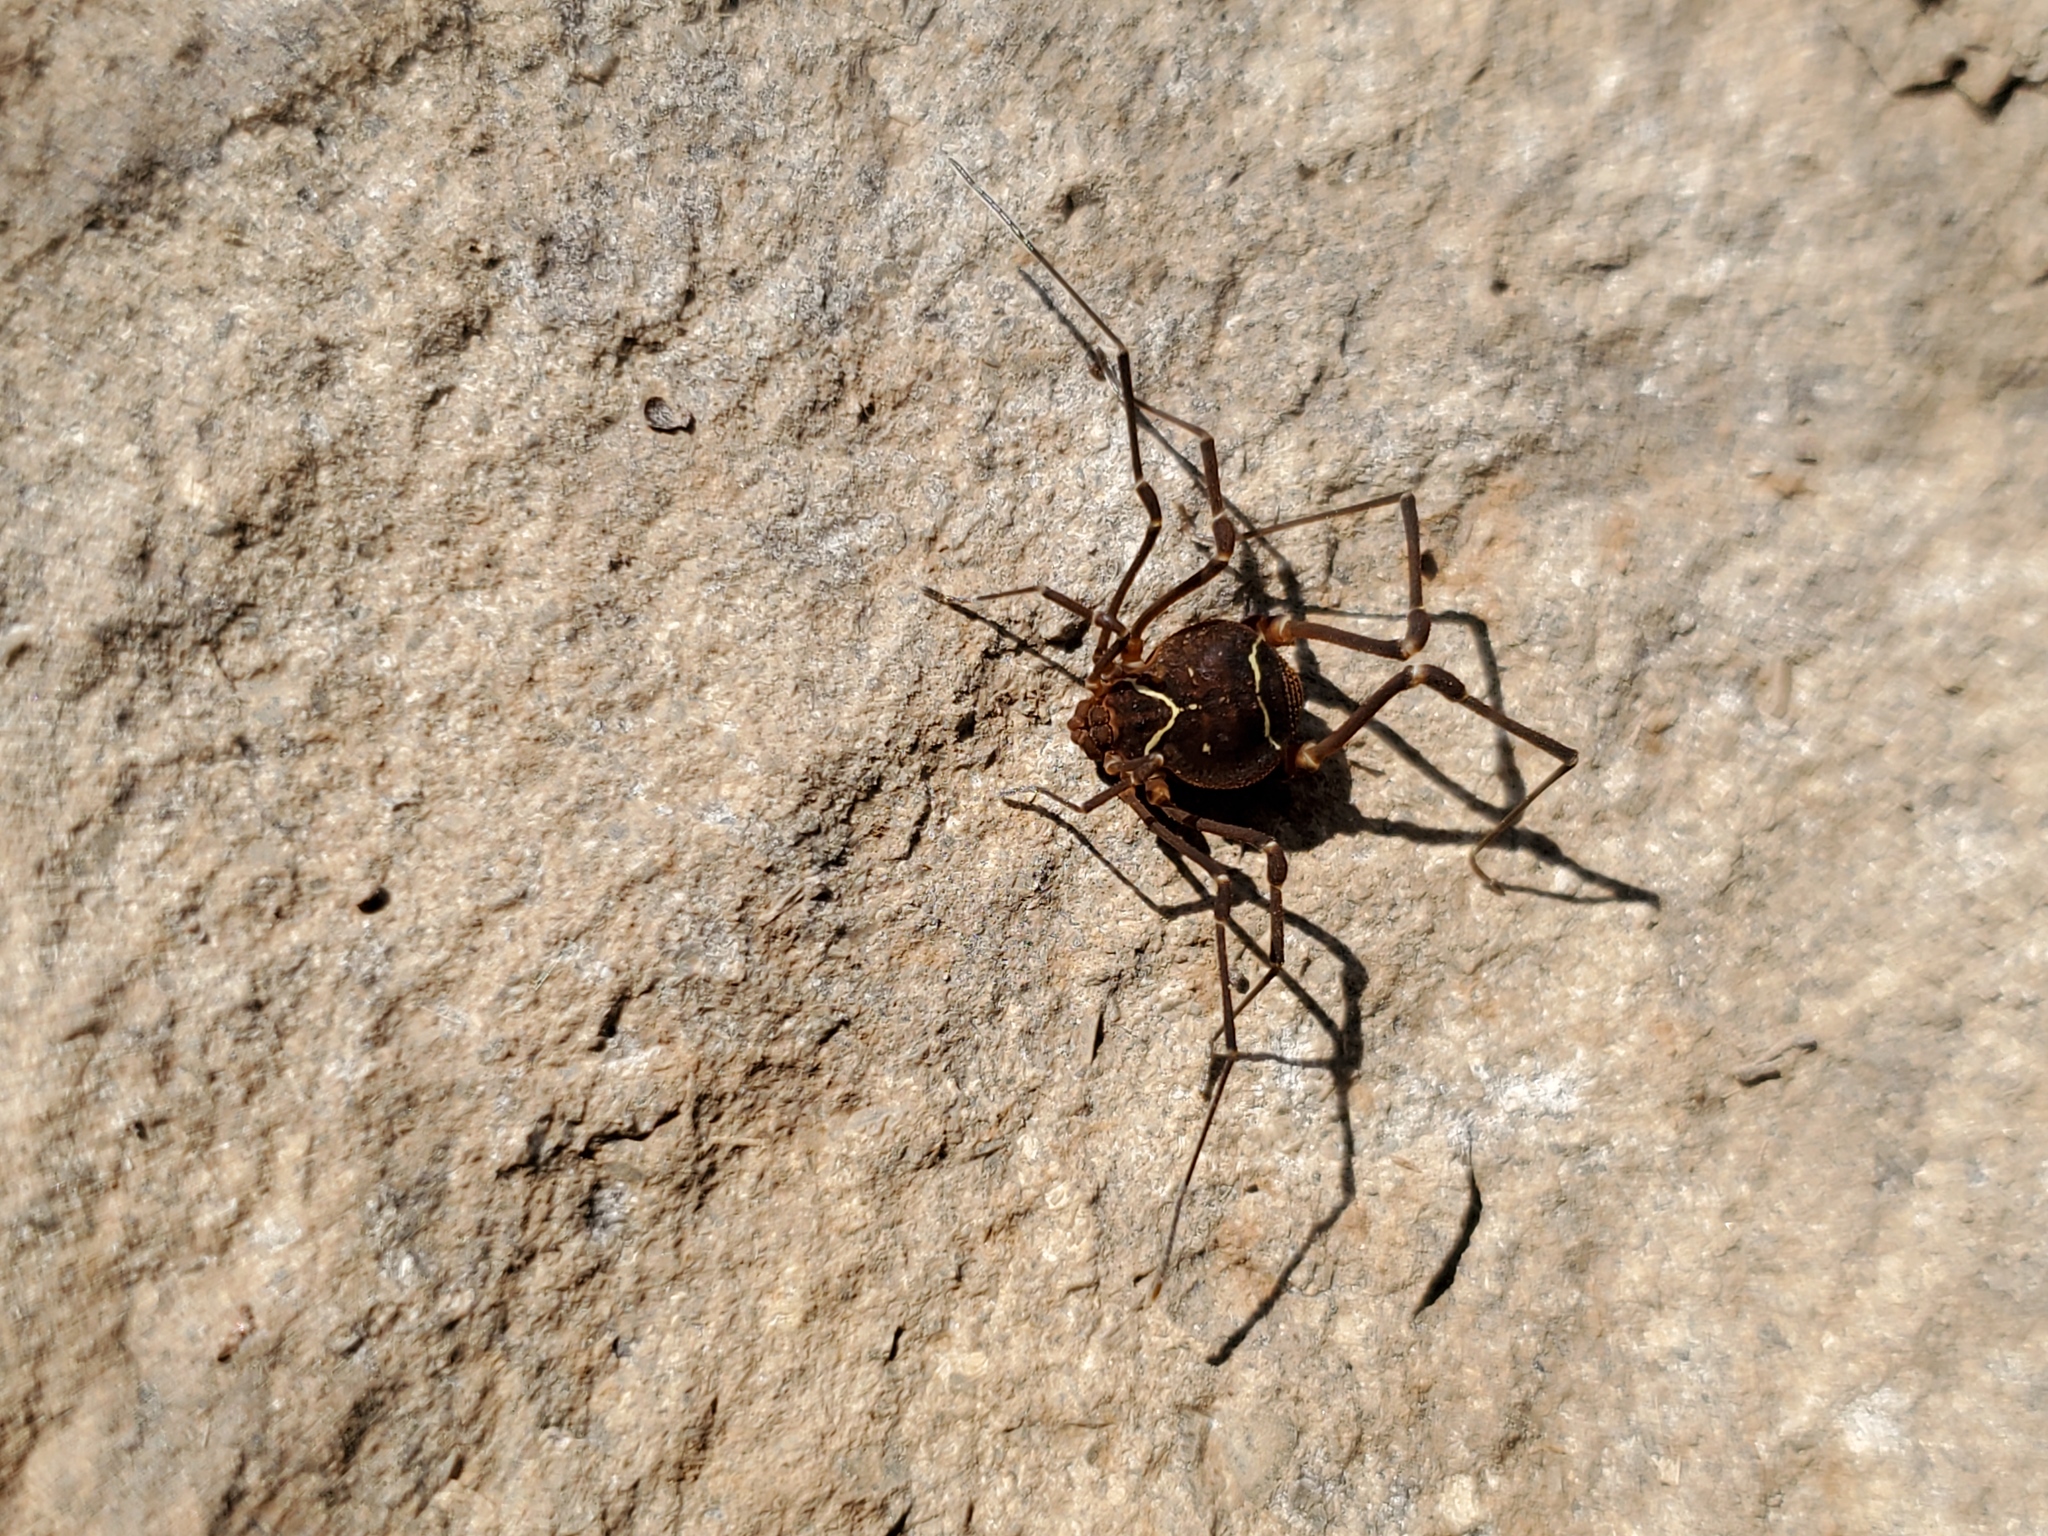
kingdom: Animalia
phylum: Arthropoda
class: Arachnida
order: Opiliones
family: Cosmetidae
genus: Libitioides
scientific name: Libitioides sayi
